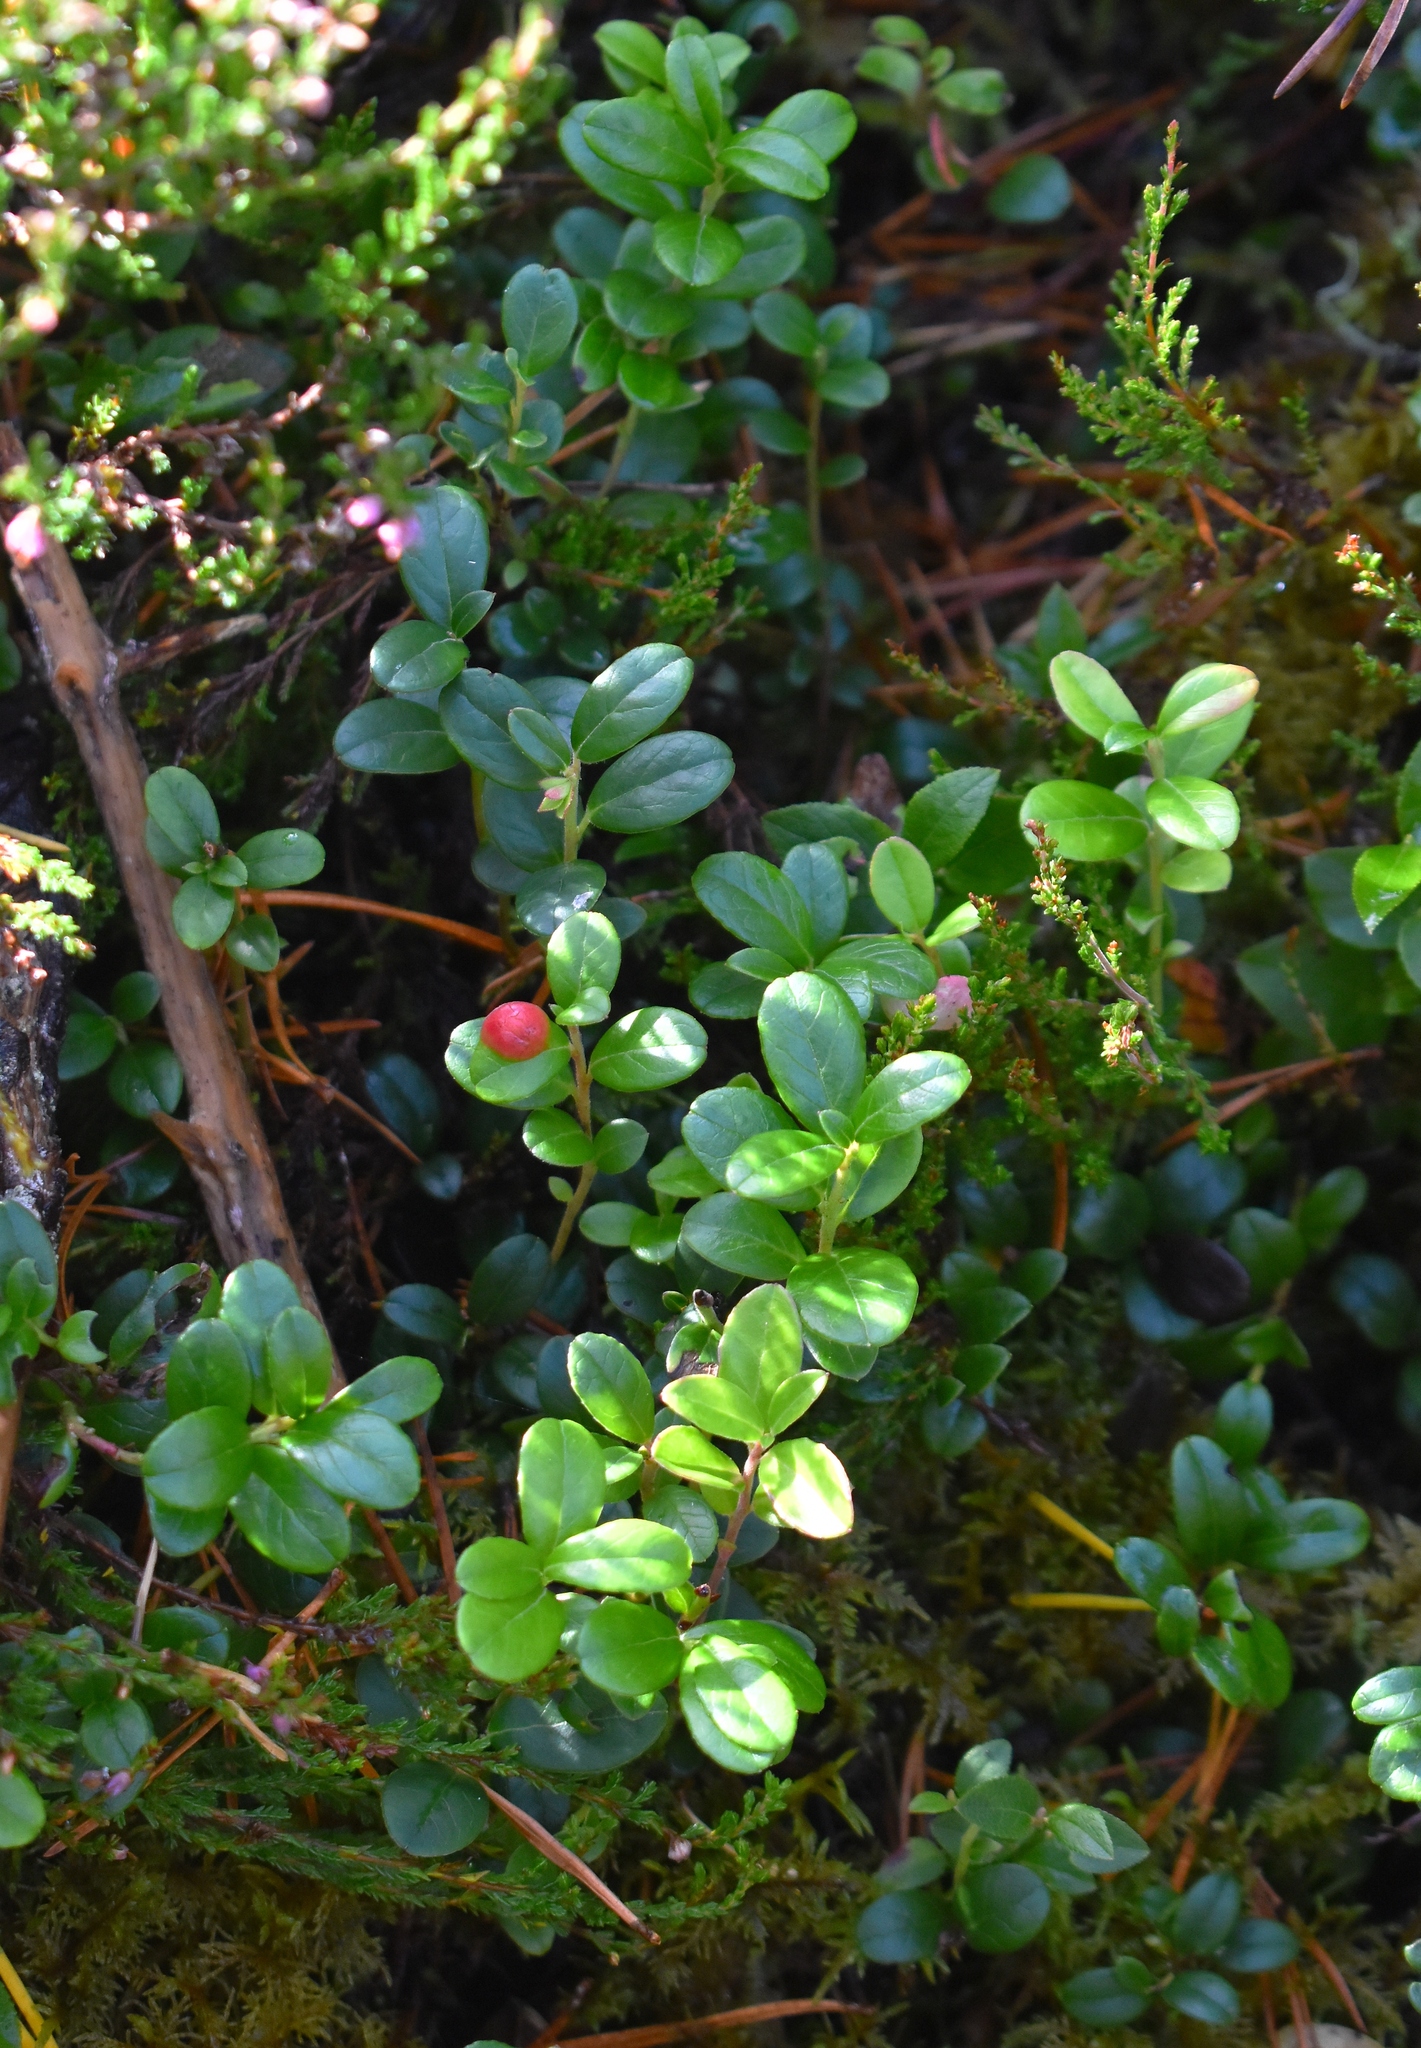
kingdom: Plantae
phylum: Tracheophyta
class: Magnoliopsida
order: Ericales
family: Ericaceae
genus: Vaccinium
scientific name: Vaccinium vitis-idaea
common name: Cowberry
